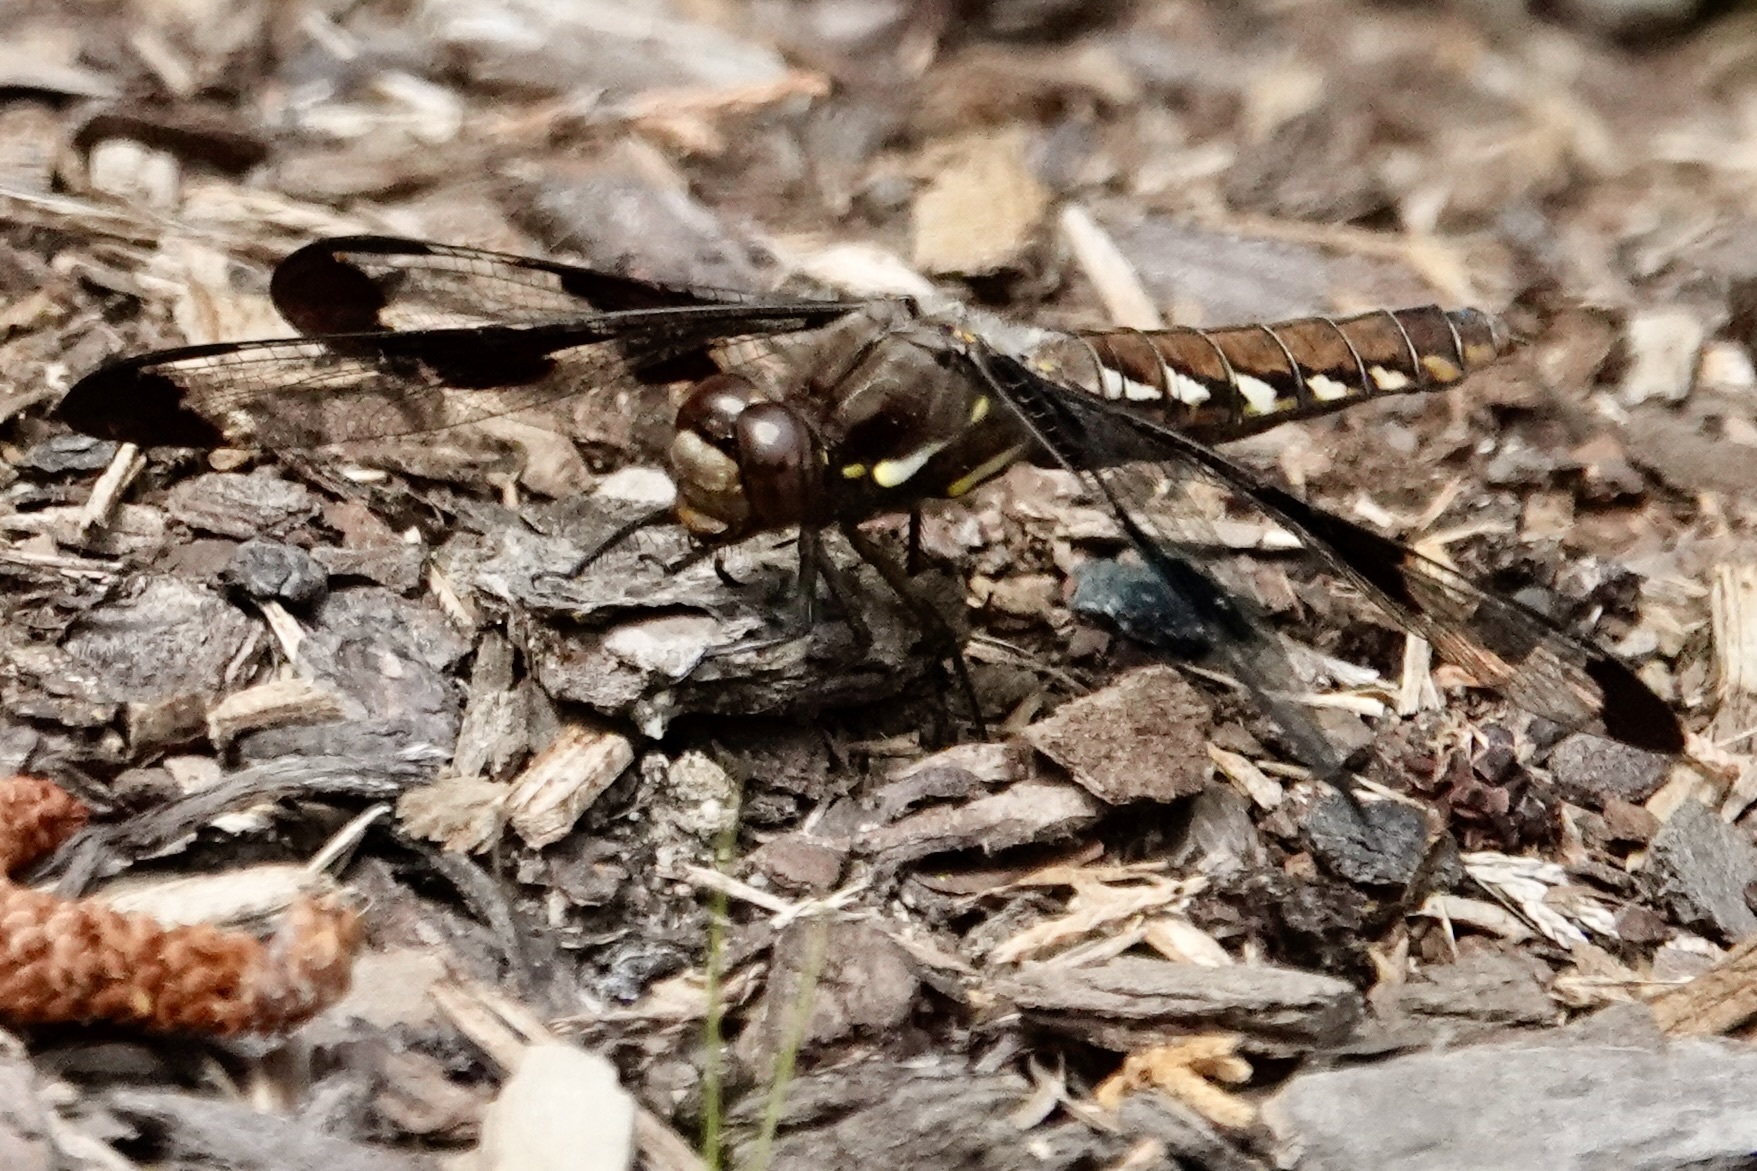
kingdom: Animalia
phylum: Arthropoda
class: Insecta
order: Odonata
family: Libellulidae
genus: Plathemis
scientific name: Plathemis lydia
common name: Common whitetail
